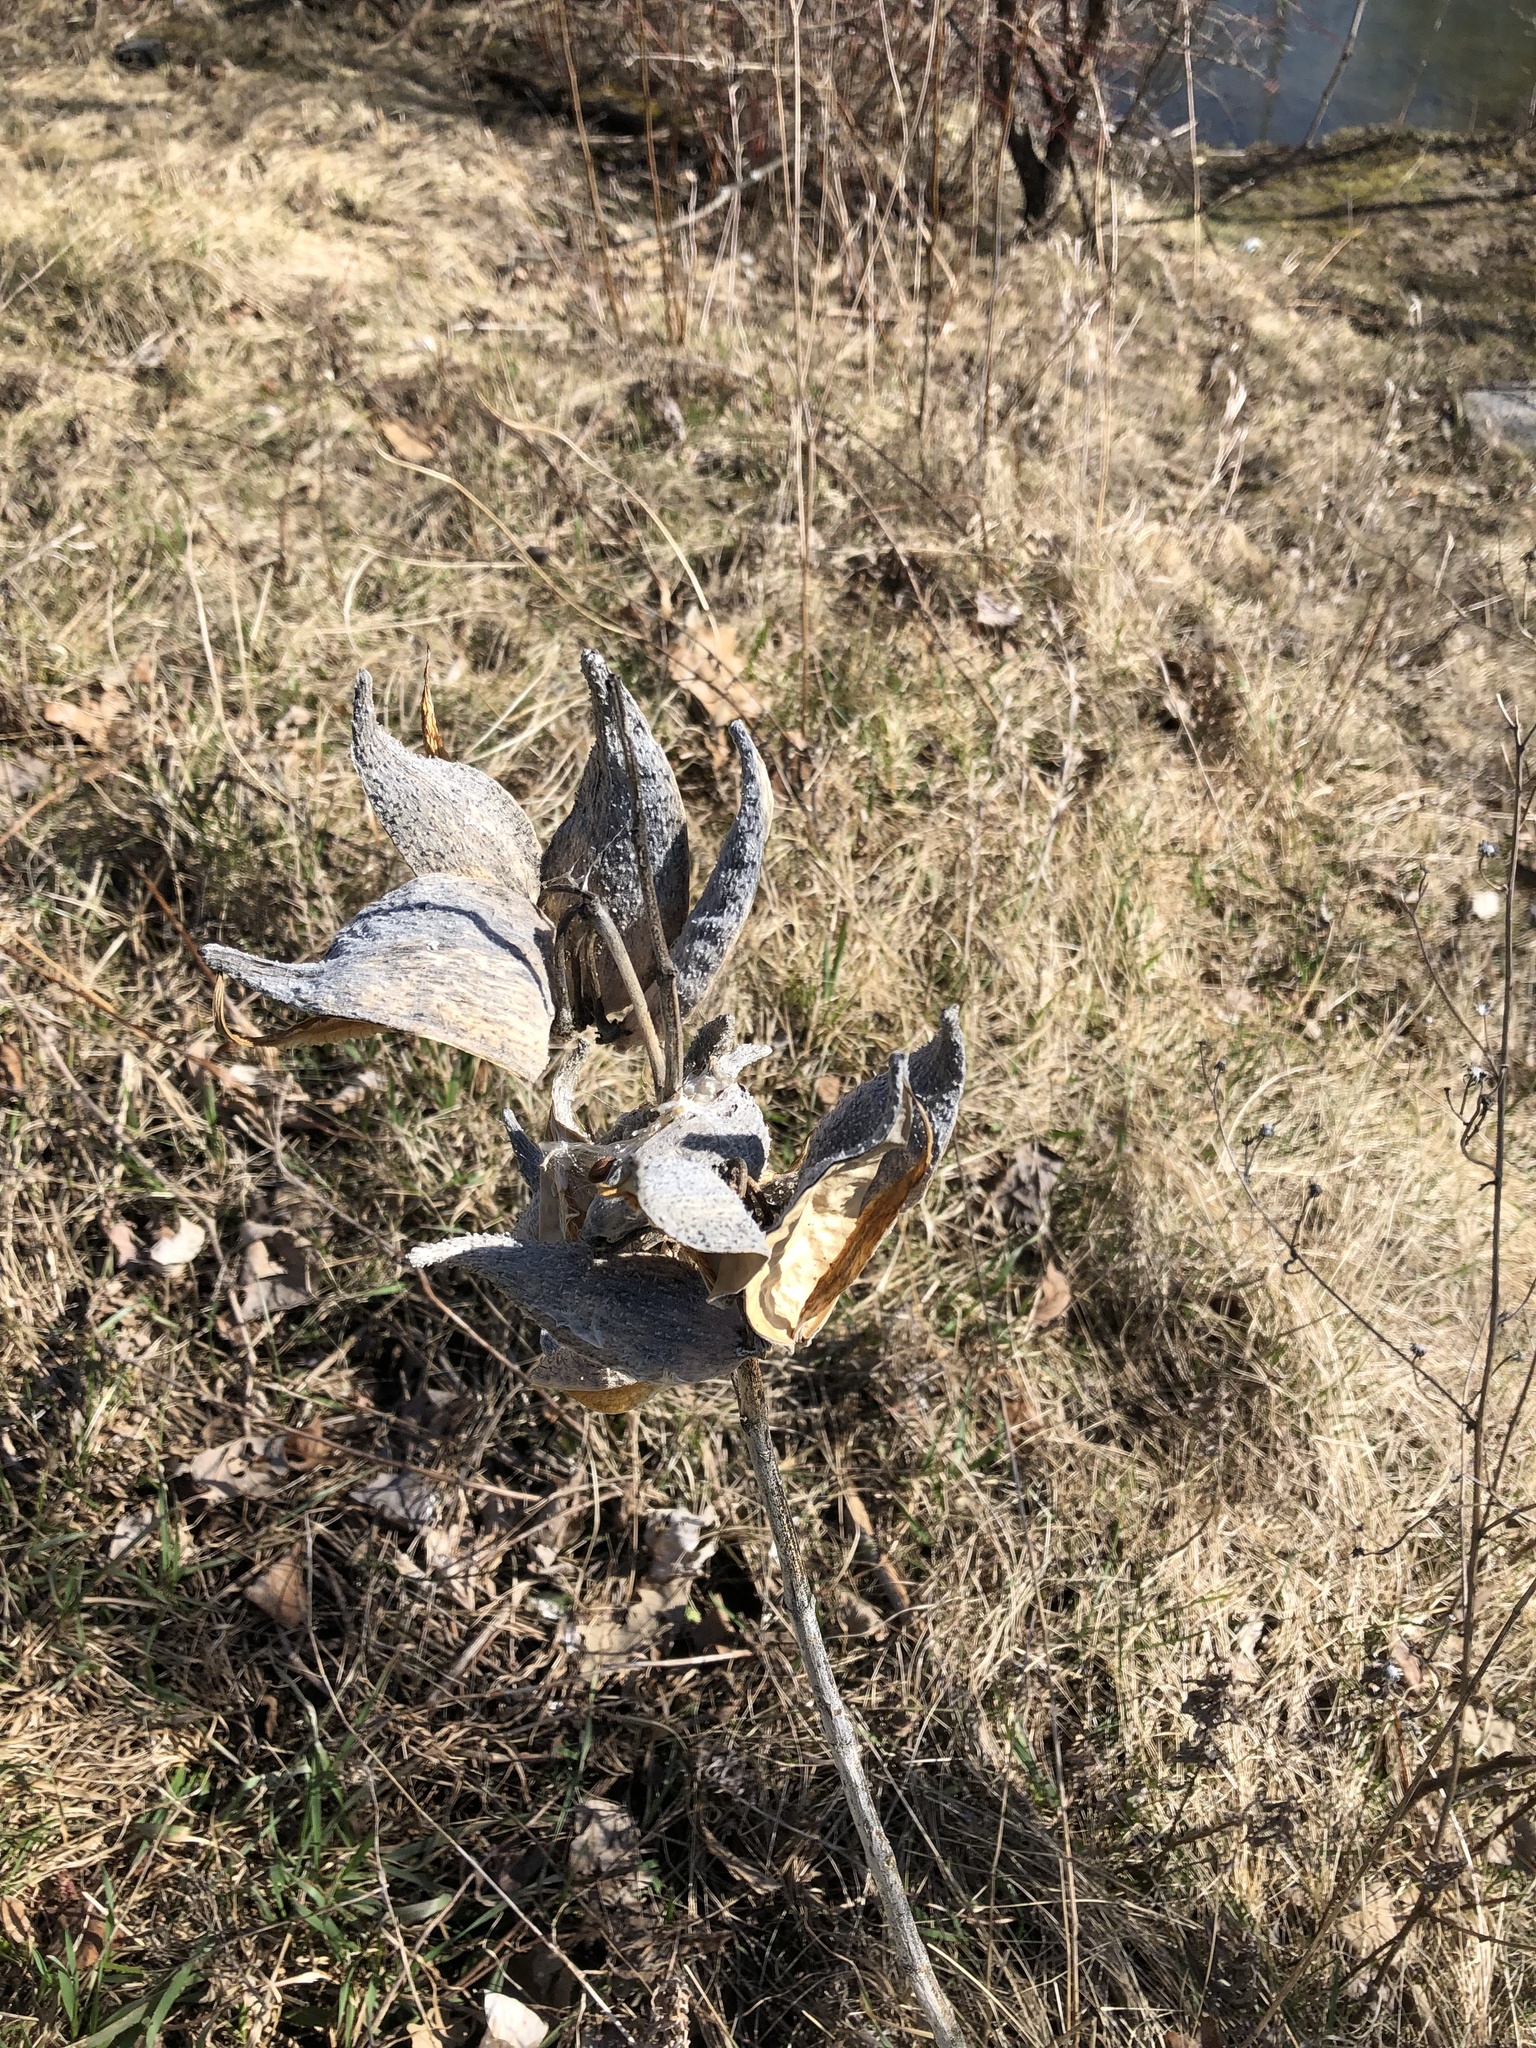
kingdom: Plantae
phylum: Tracheophyta
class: Magnoliopsida
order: Gentianales
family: Apocynaceae
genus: Asclepias
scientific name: Asclepias syriaca
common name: Common milkweed
